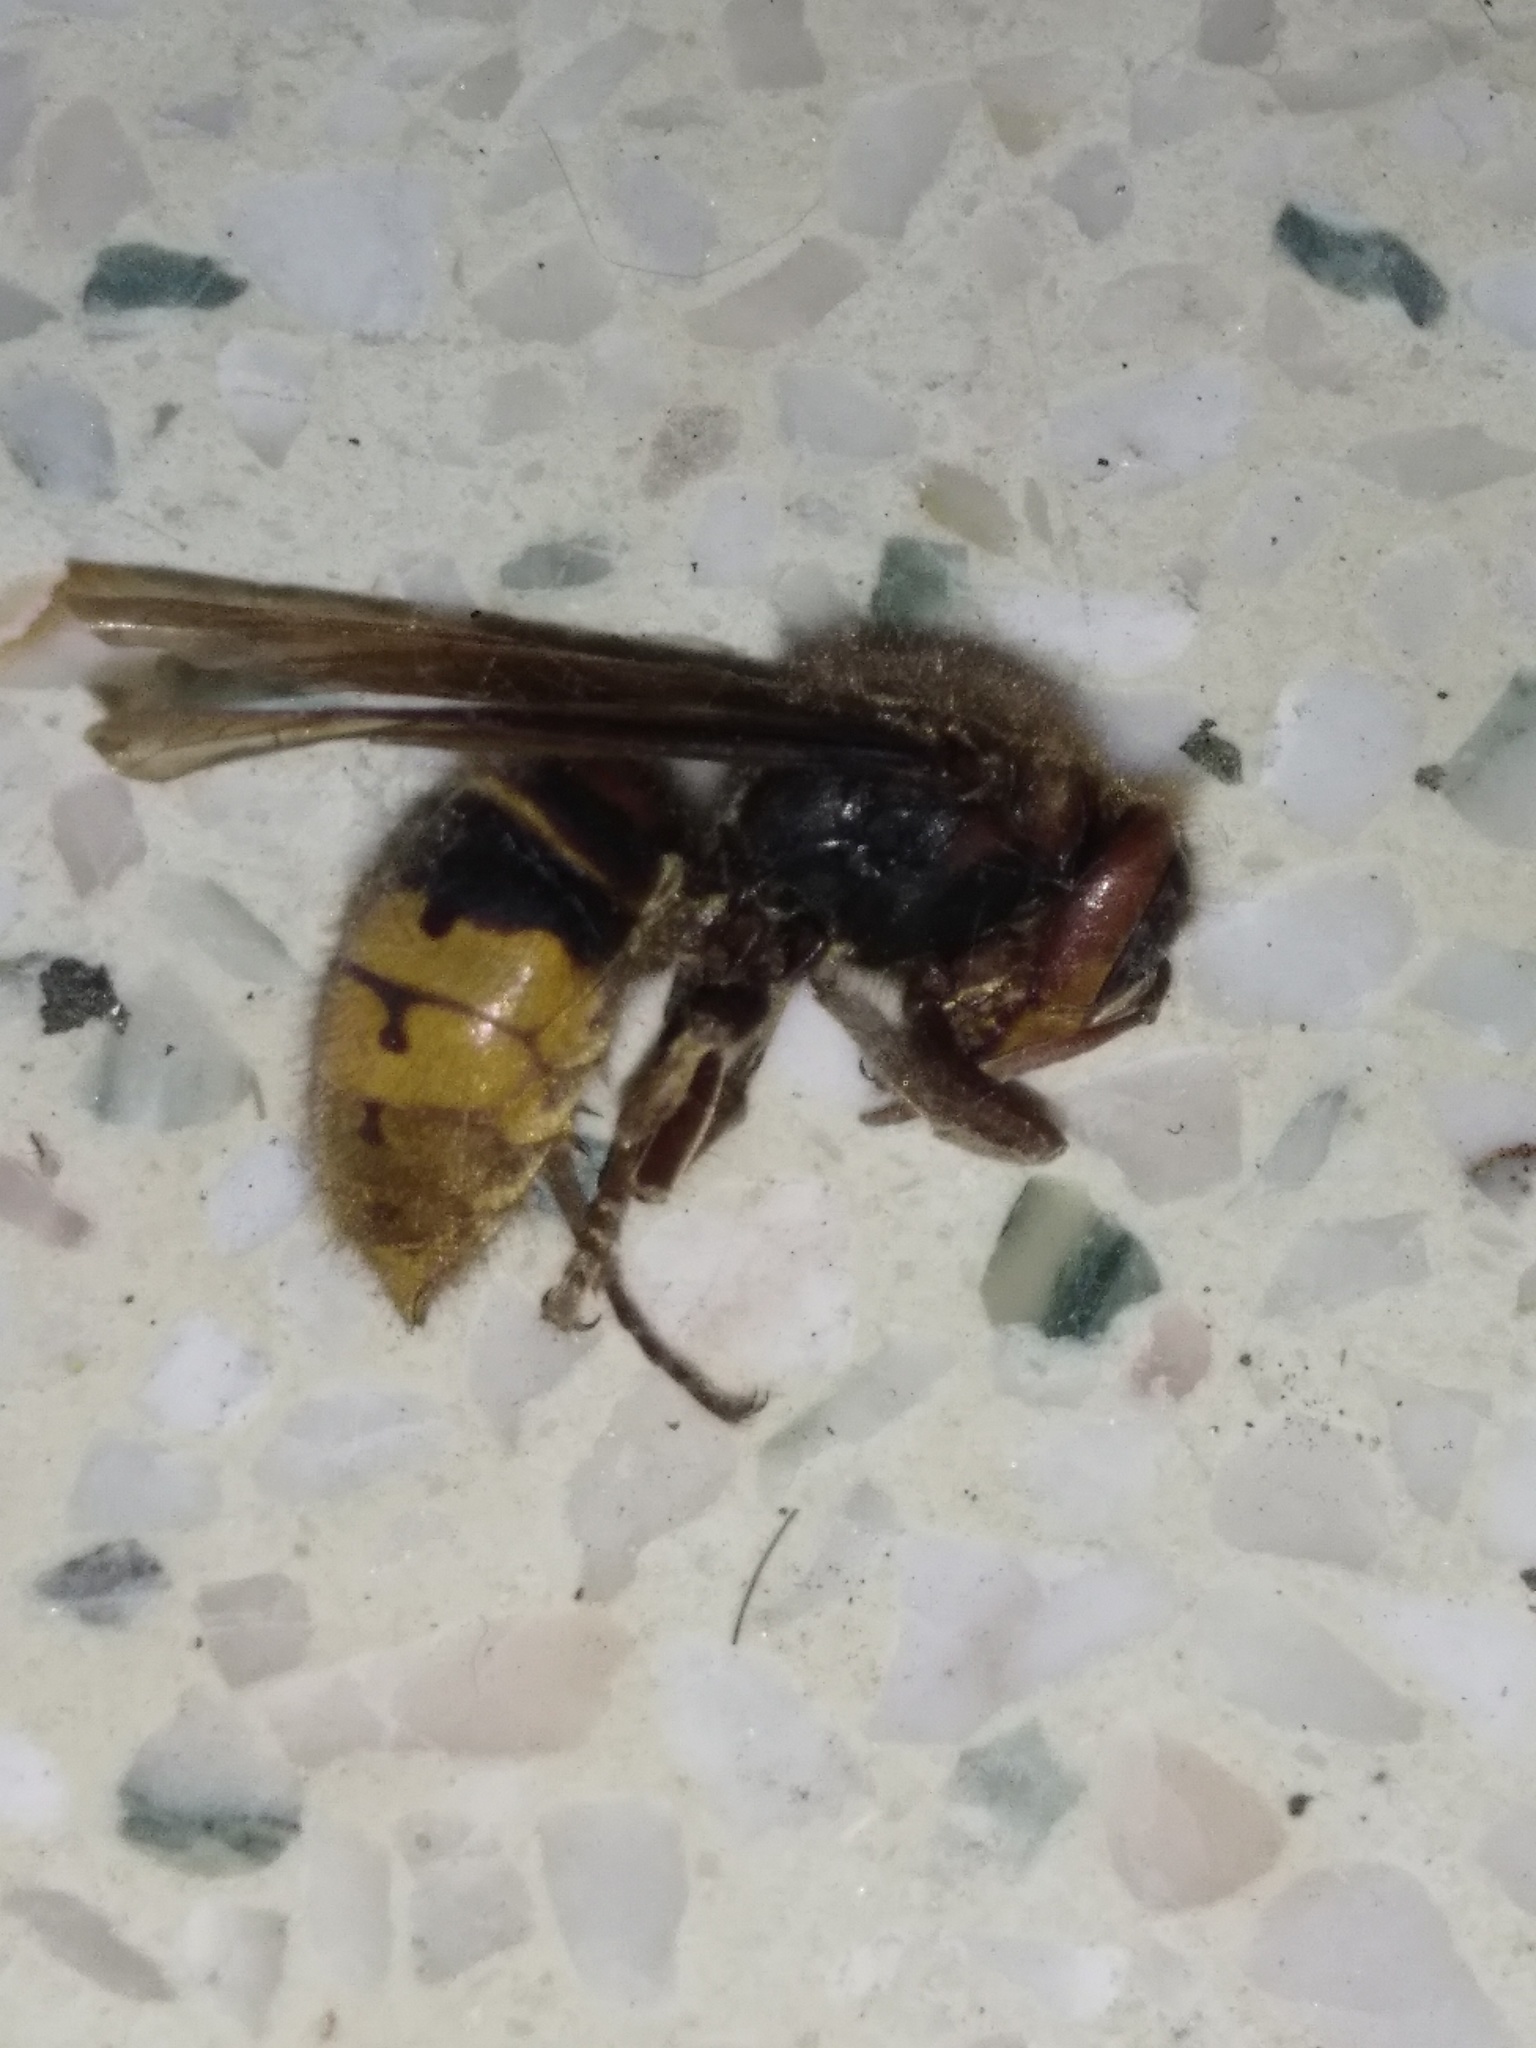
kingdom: Animalia
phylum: Arthropoda
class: Insecta
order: Hymenoptera
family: Vespidae
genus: Vespa
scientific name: Vespa crabro
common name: Hornet
